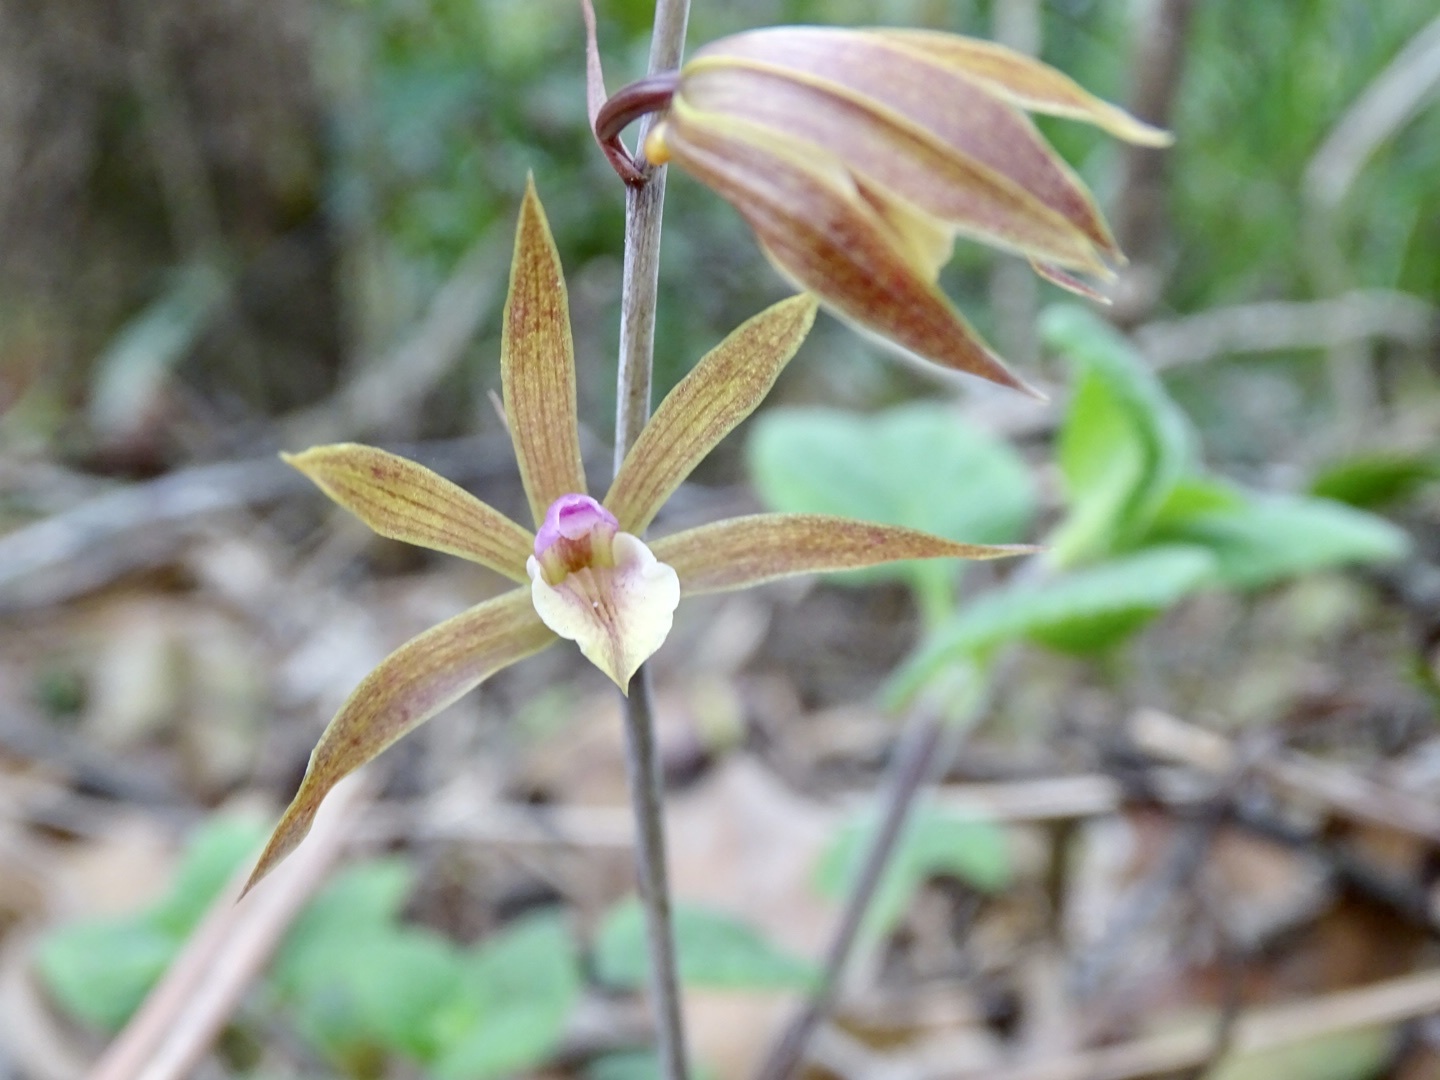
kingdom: Plantae
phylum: Tracheophyta
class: Liliopsida
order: Asparagales
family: Orchidaceae
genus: Ania
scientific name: Ania hongkongensis
